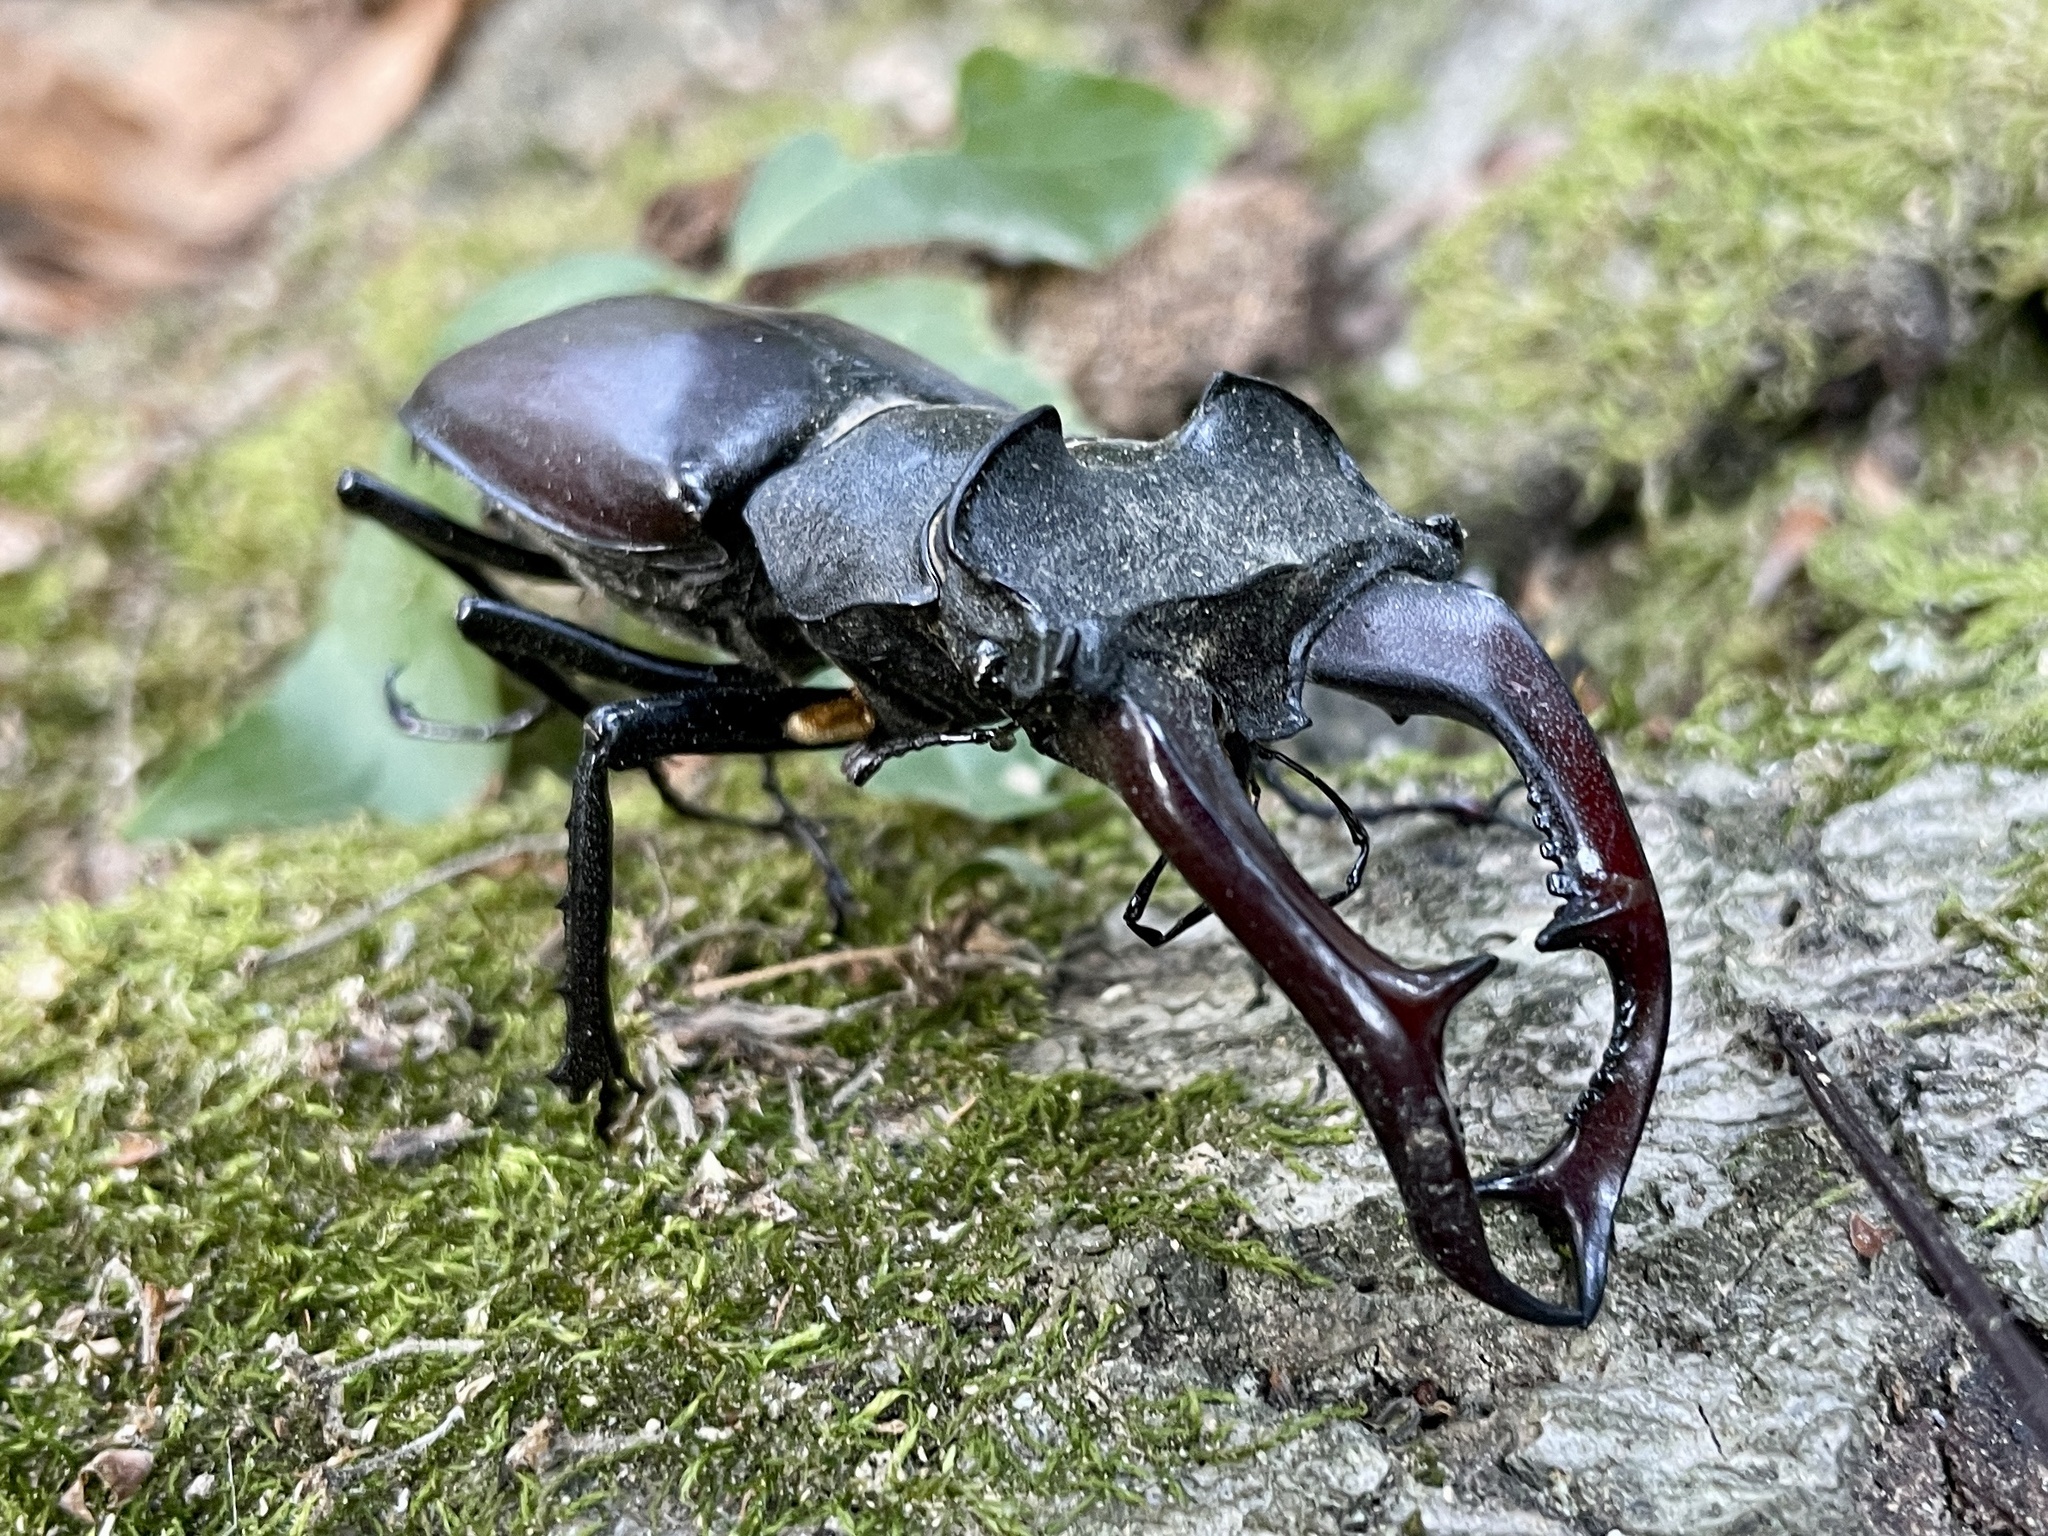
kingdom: Animalia
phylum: Arthropoda
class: Insecta
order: Coleoptera
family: Lucanidae
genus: Lucanus
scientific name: Lucanus cervus
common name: Stag beetle
